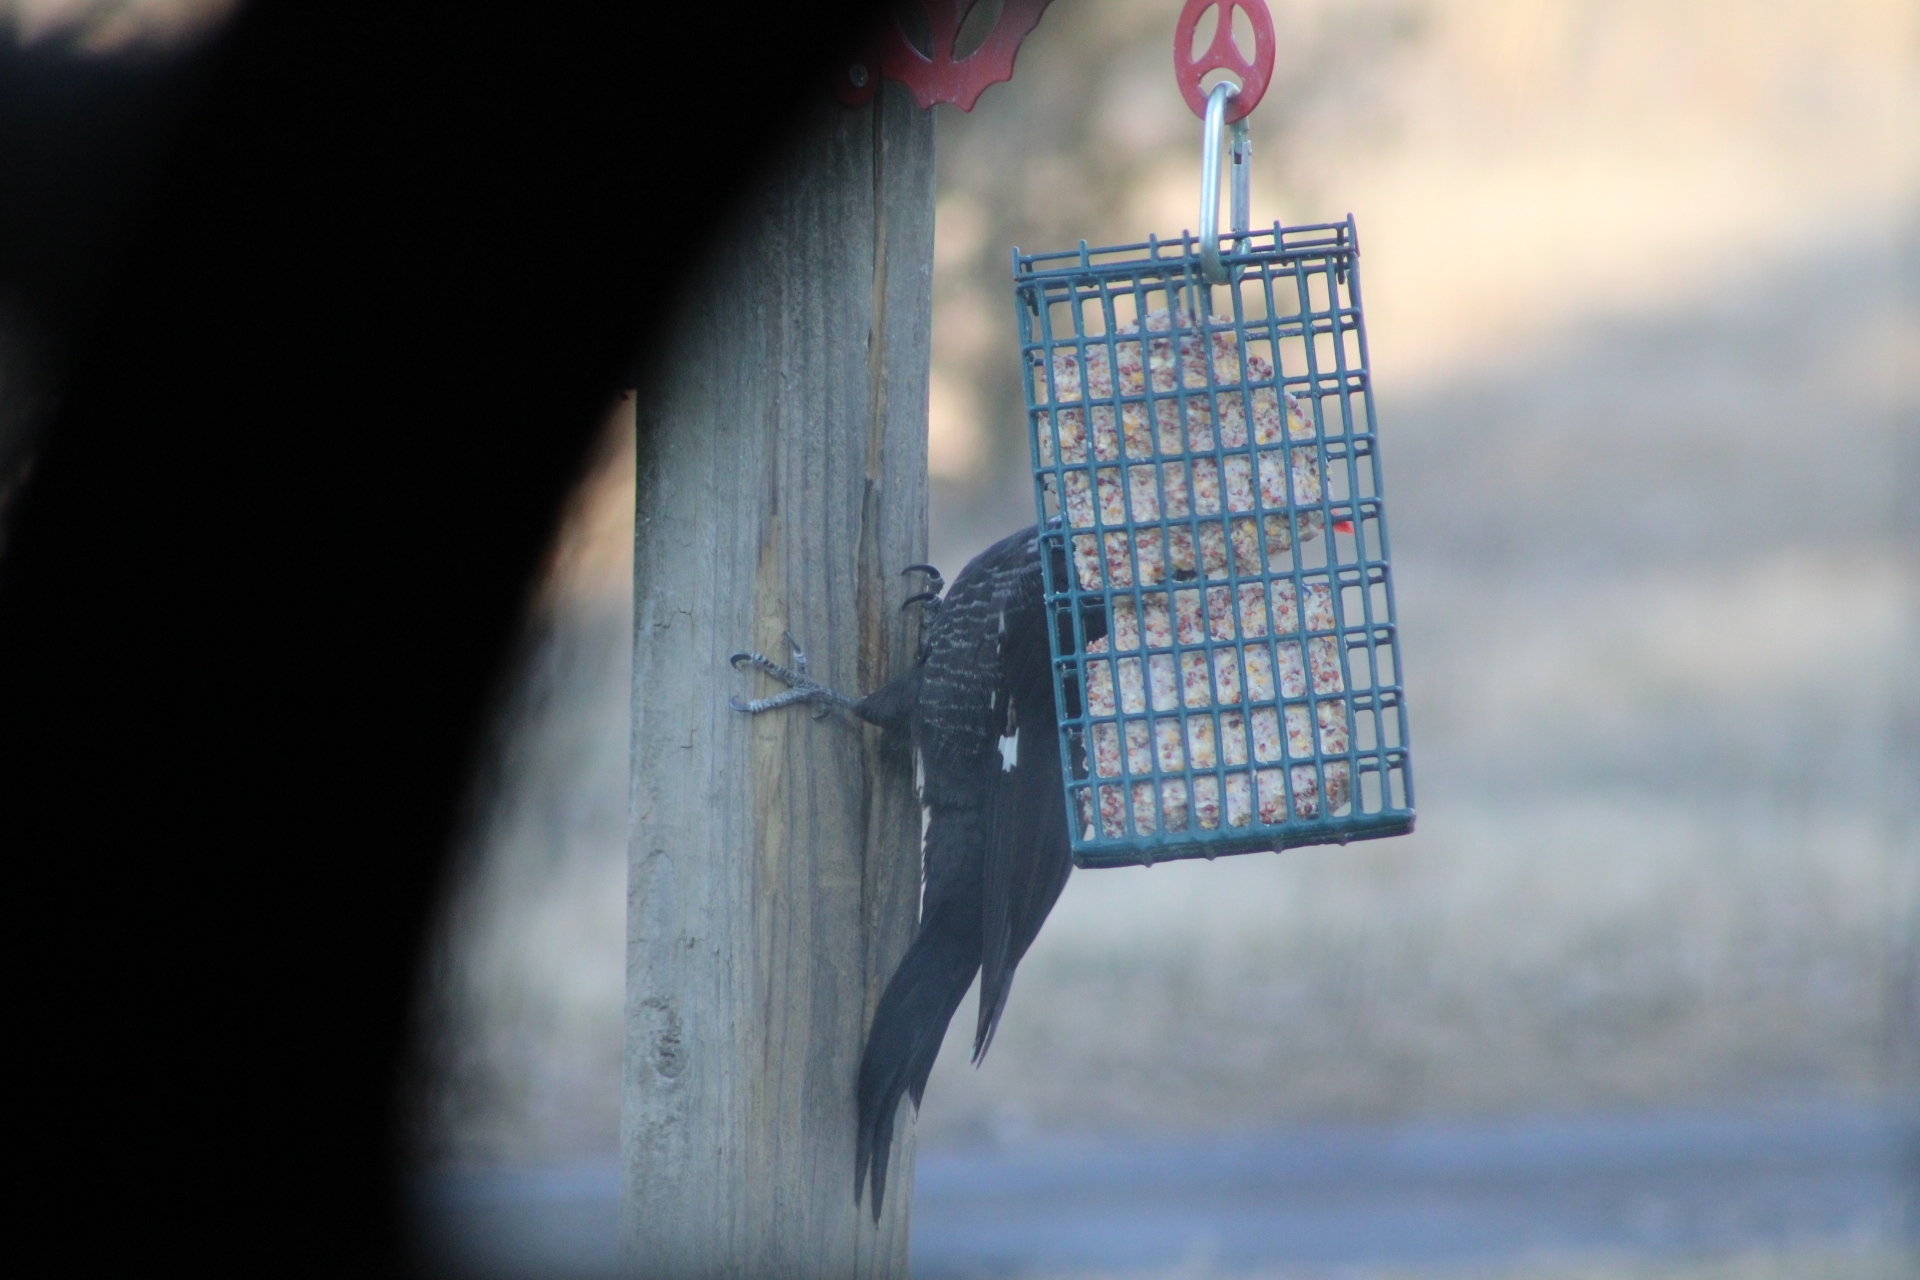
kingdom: Animalia
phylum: Chordata
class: Aves
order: Piciformes
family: Picidae
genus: Dryocopus
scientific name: Dryocopus pileatus
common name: Pileated woodpecker
